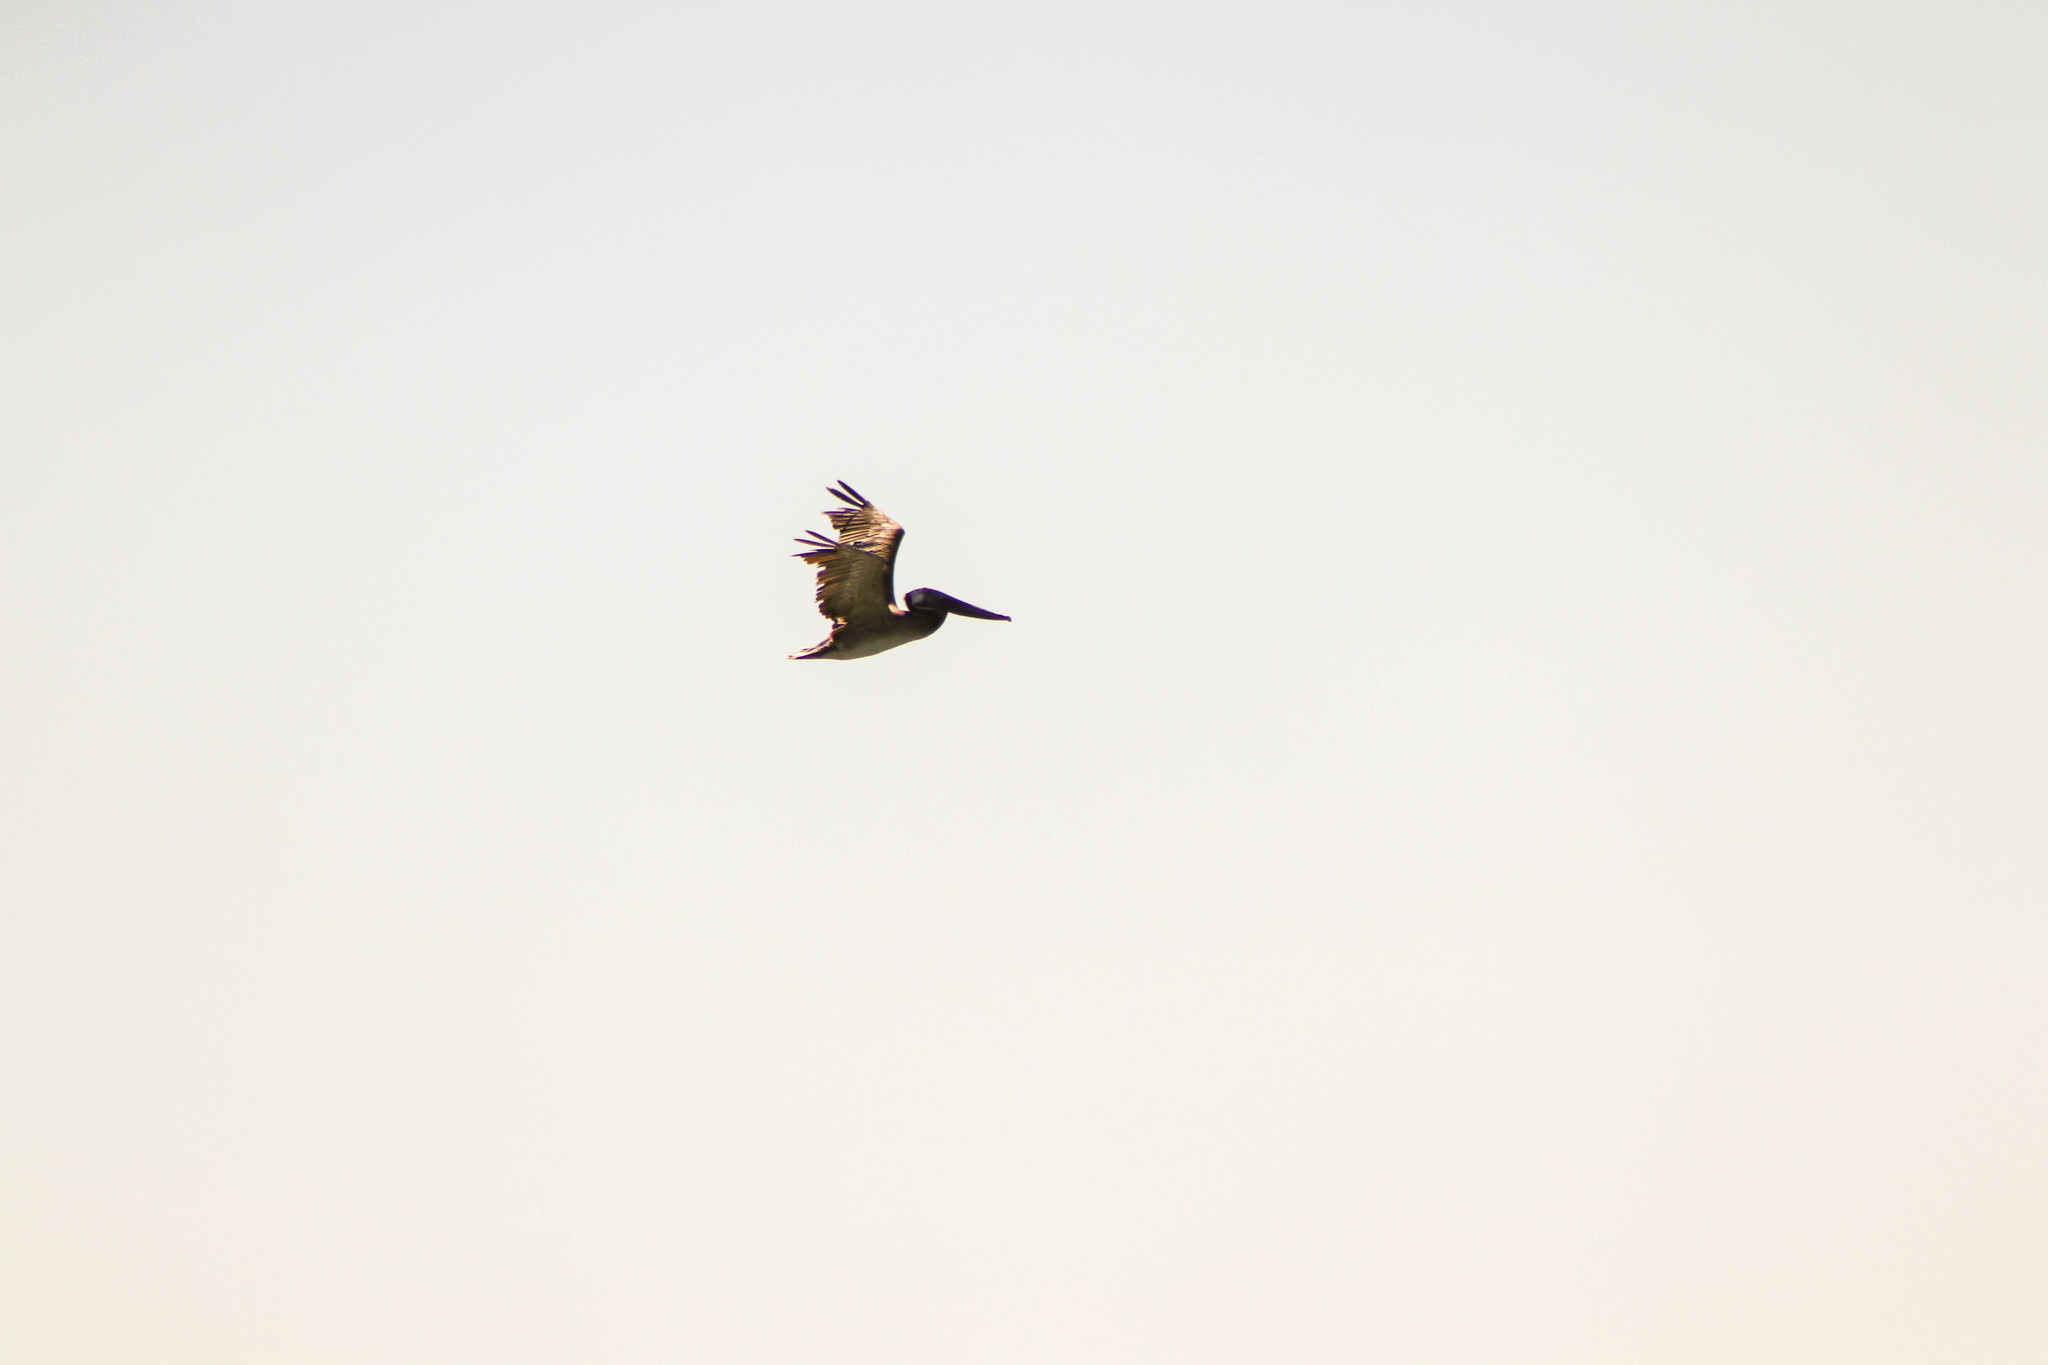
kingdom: Animalia
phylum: Chordata
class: Aves
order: Pelecaniformes
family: Pelecanidae
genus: Pelecanus
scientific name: Pelecanus occidentalis
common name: Brown pelican
